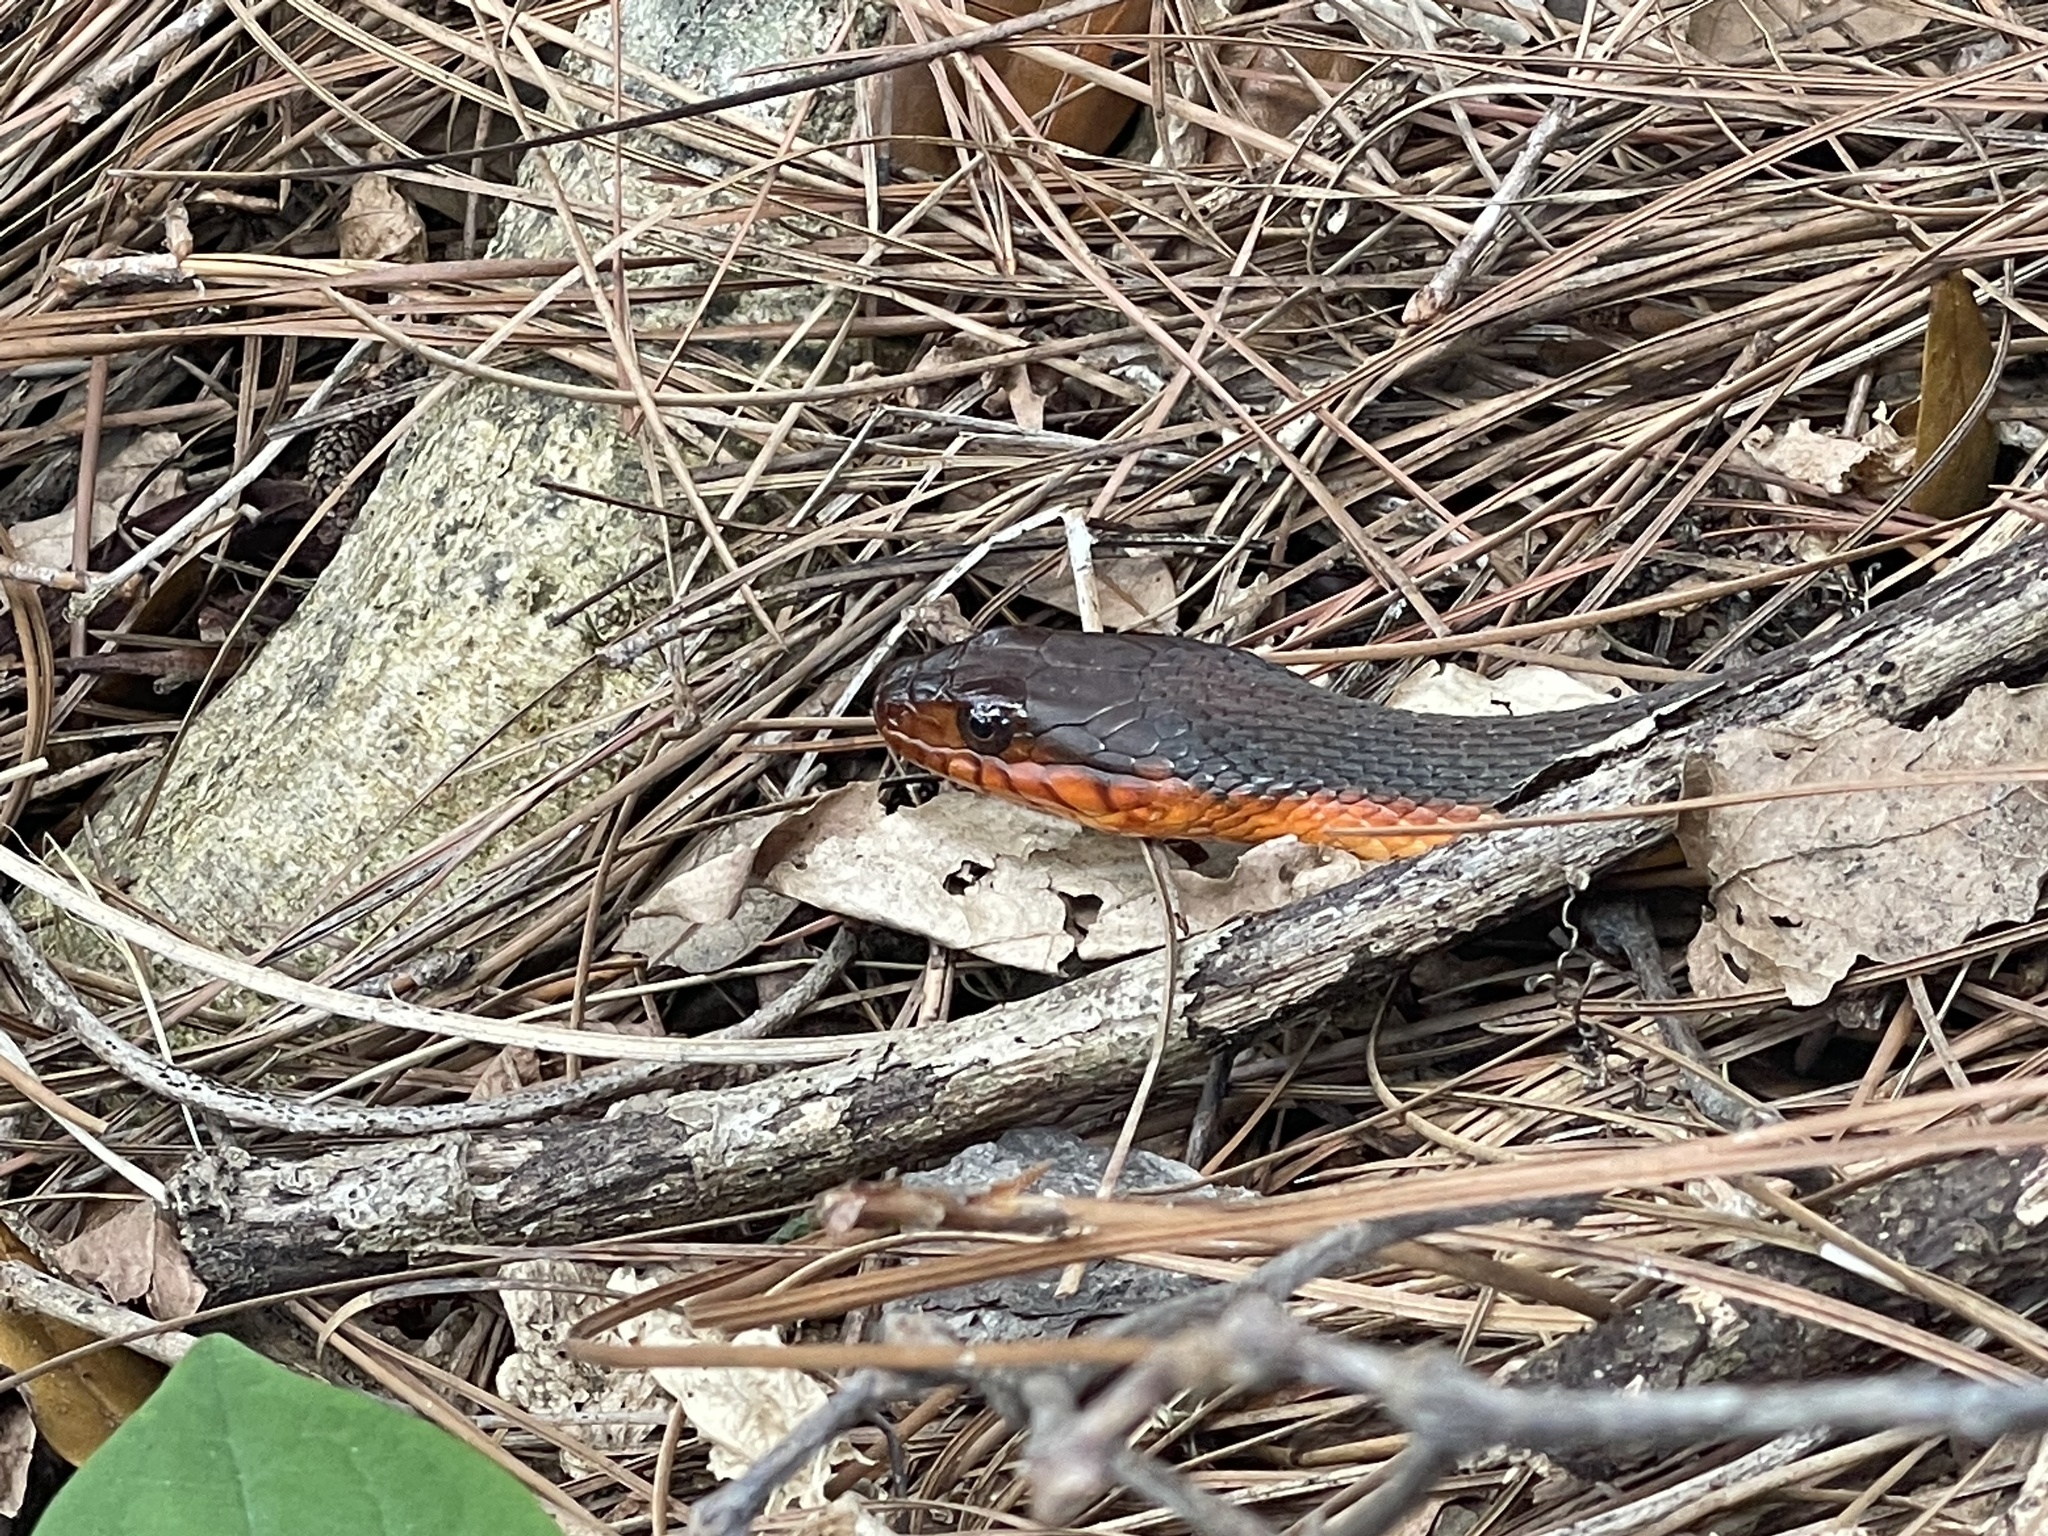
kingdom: Animalia
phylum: Chordata
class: Squamata
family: Colubridae
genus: Nerodia
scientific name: Nerodia erythrogaster
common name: Plainbelly water snake
